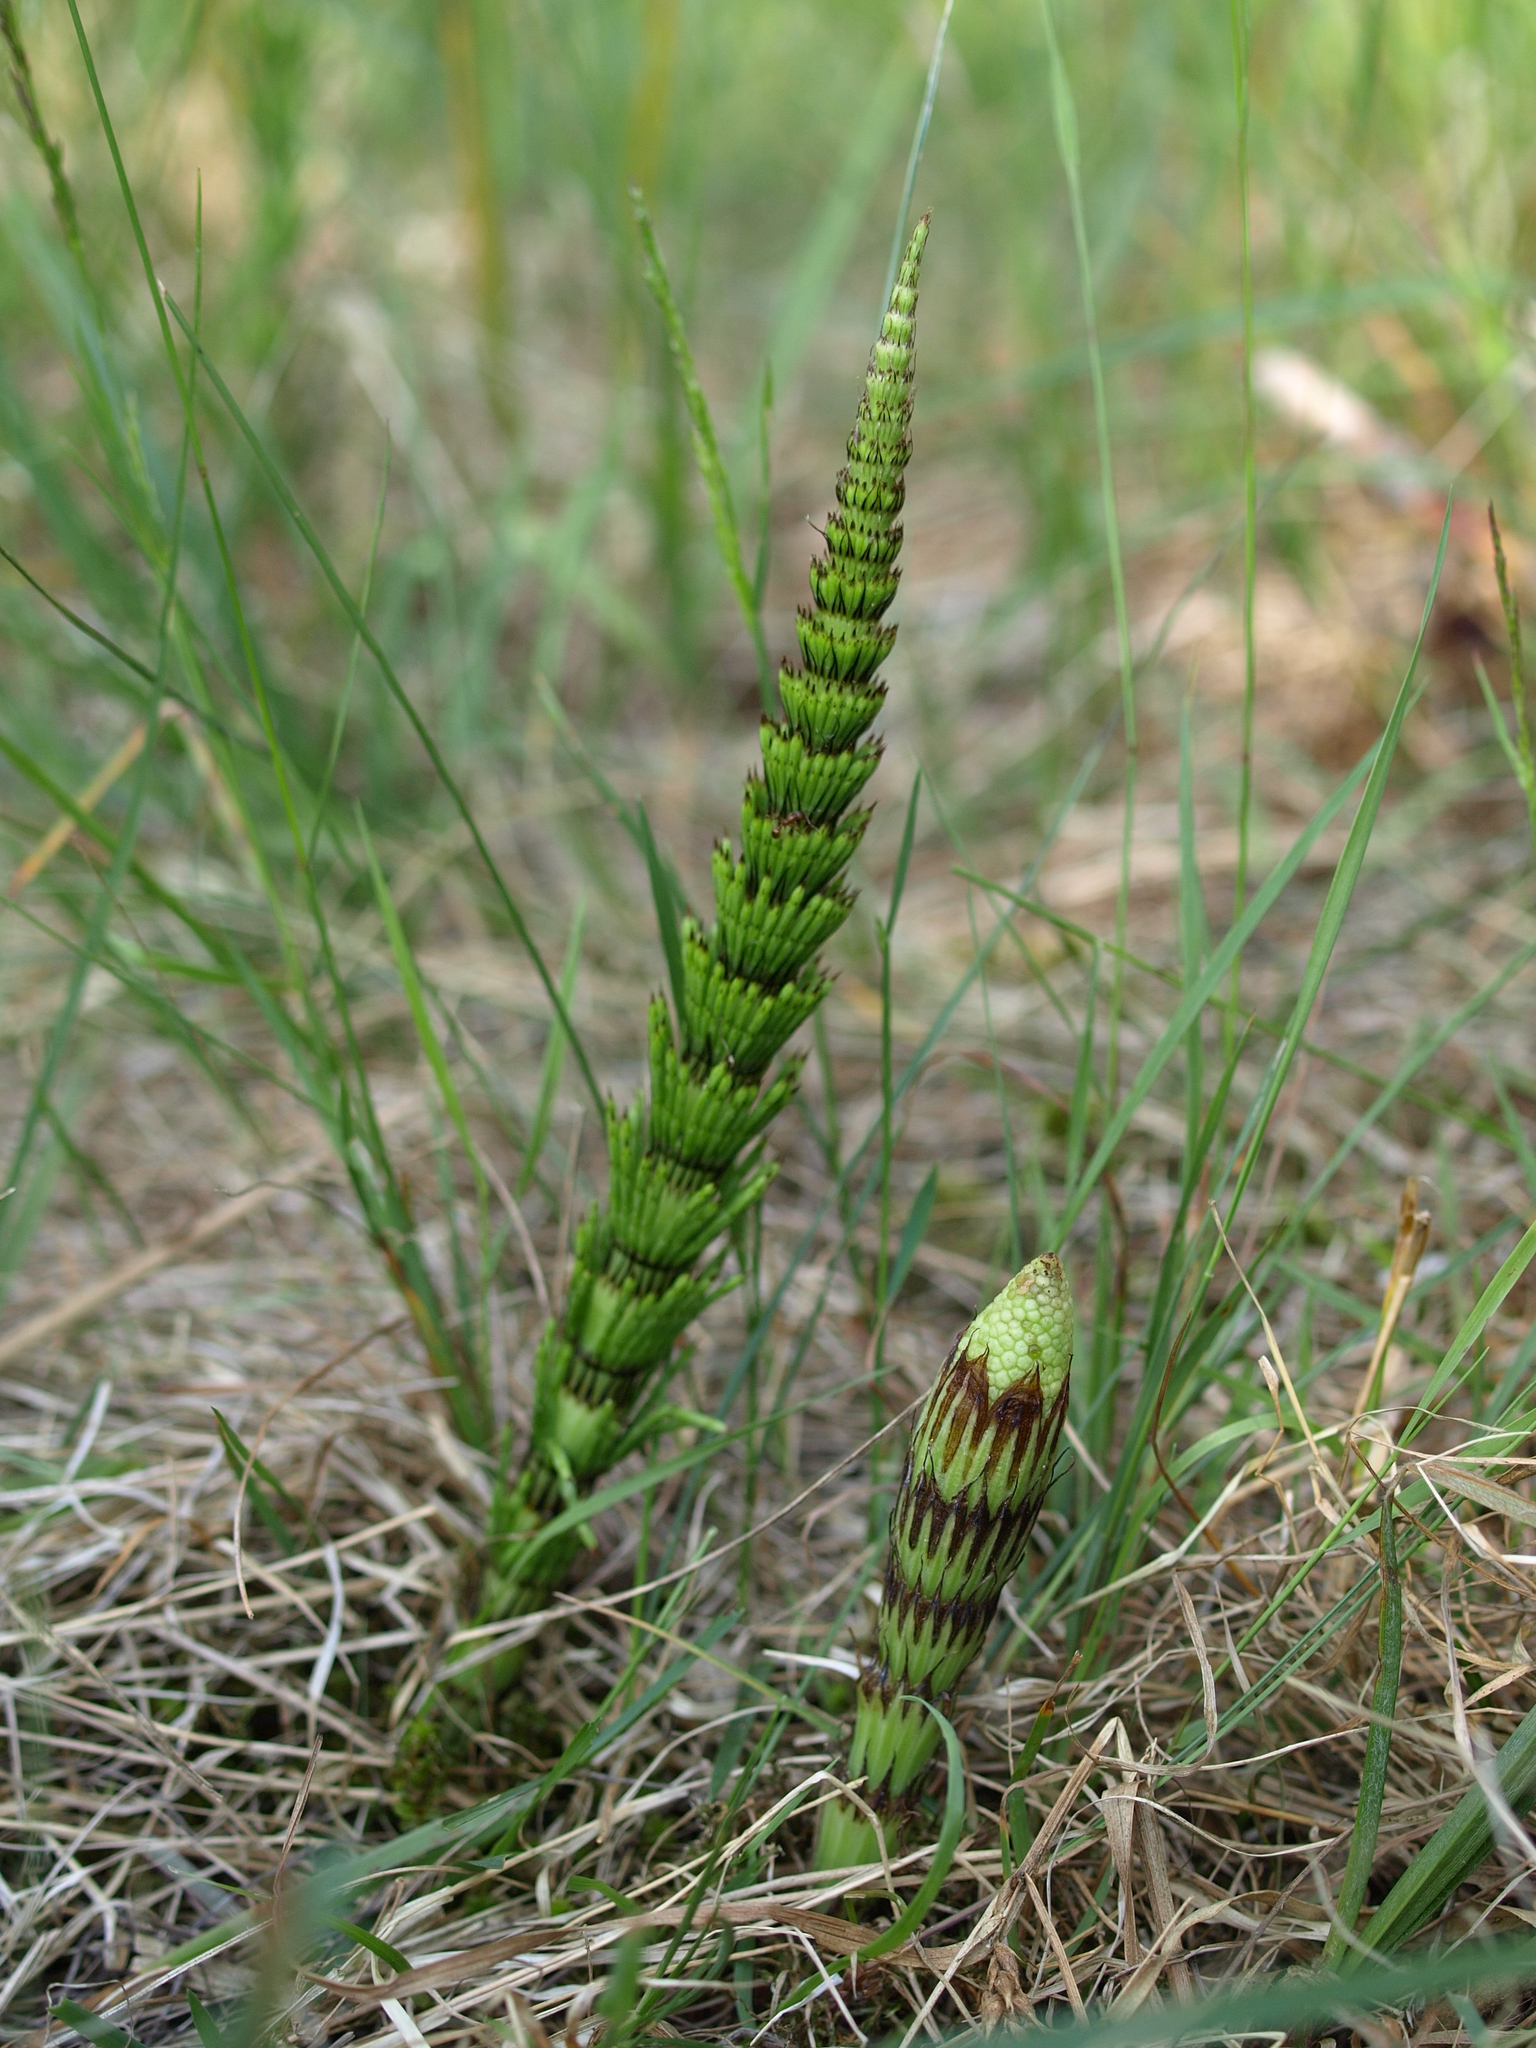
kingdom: Plantae
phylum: Tracheophyta
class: Polypodiopsida
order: Equisetales
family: Equisetaceae
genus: Equisetum
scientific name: Equisetum telmateia
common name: Great horsetail
